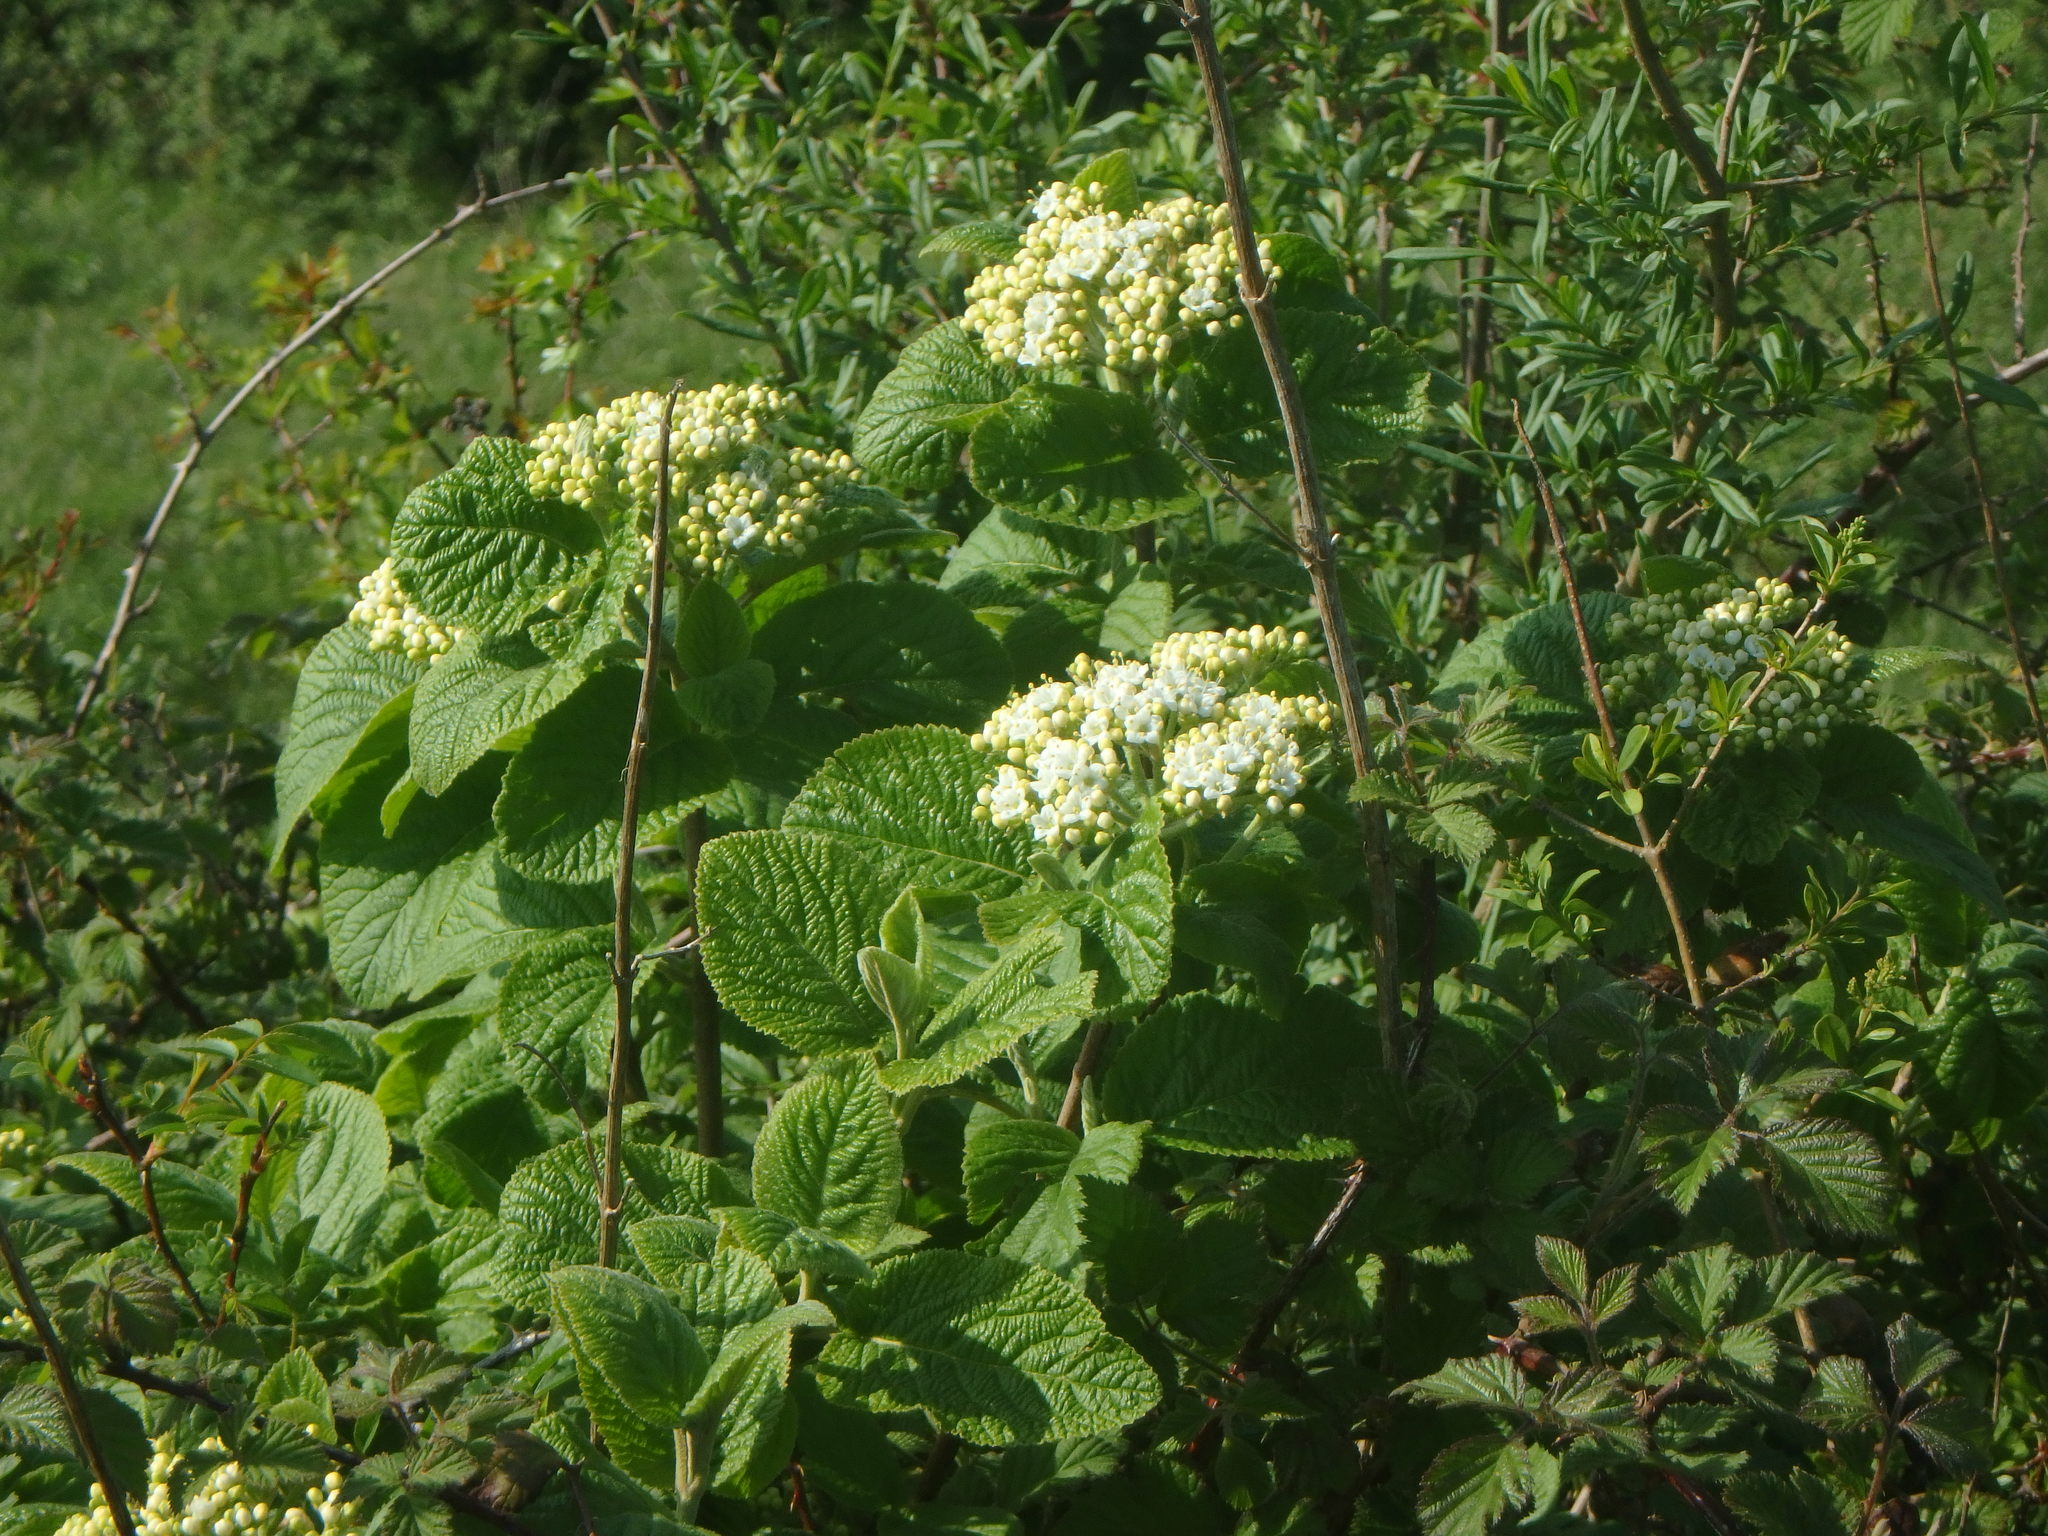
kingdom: Plantae
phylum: Tracheophyta
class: Magnoliopsida
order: Dipsacales
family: Viburnaceae
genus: Viburnum
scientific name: Viburnum lantana
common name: Wayfaring tree
